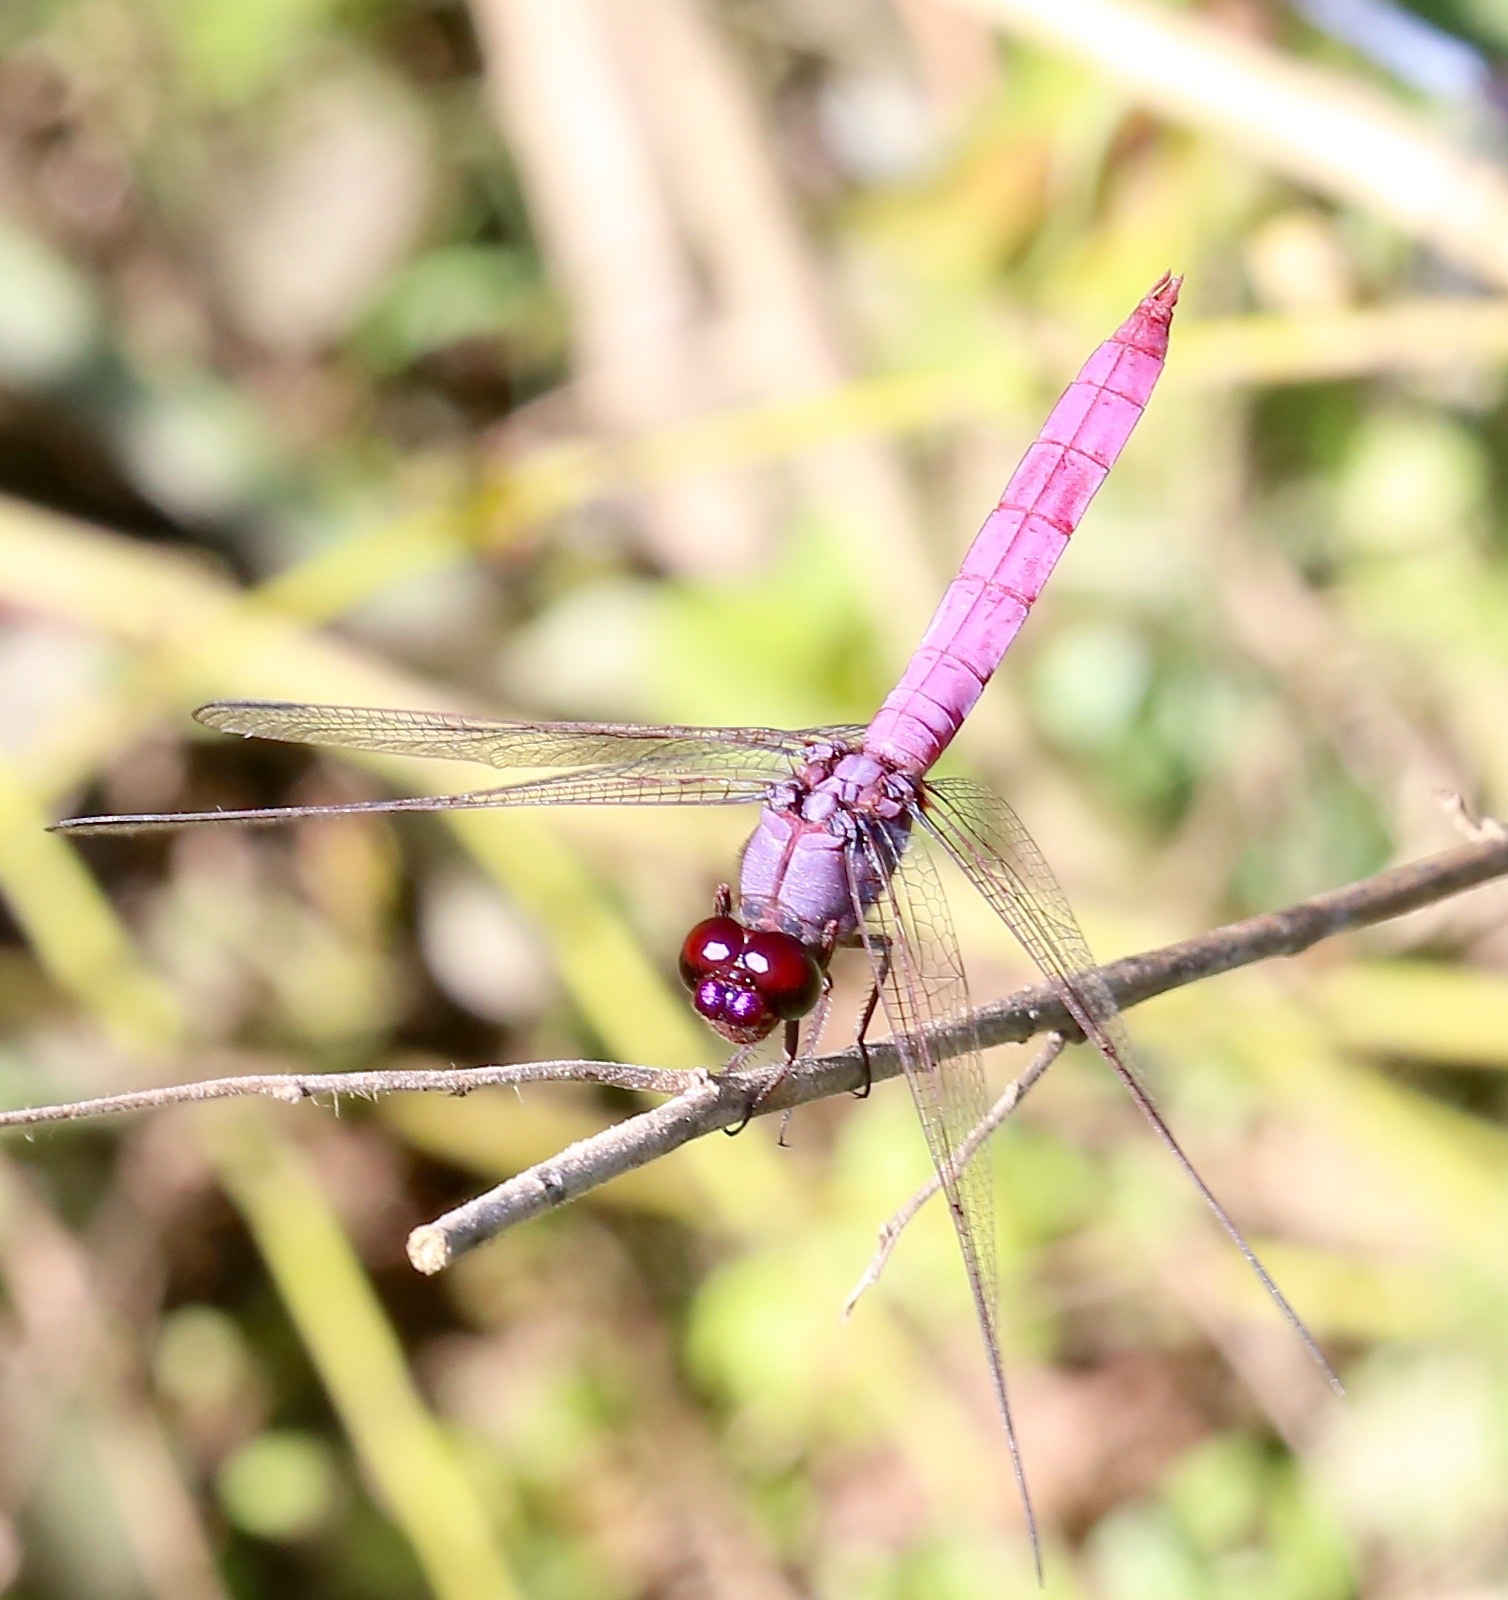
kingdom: Animalia
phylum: Arthropoda
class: Insecta
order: Odonata
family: Libellulidae
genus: Orthemis
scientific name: Orthemis ferruginea
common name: Roseate skimmer
